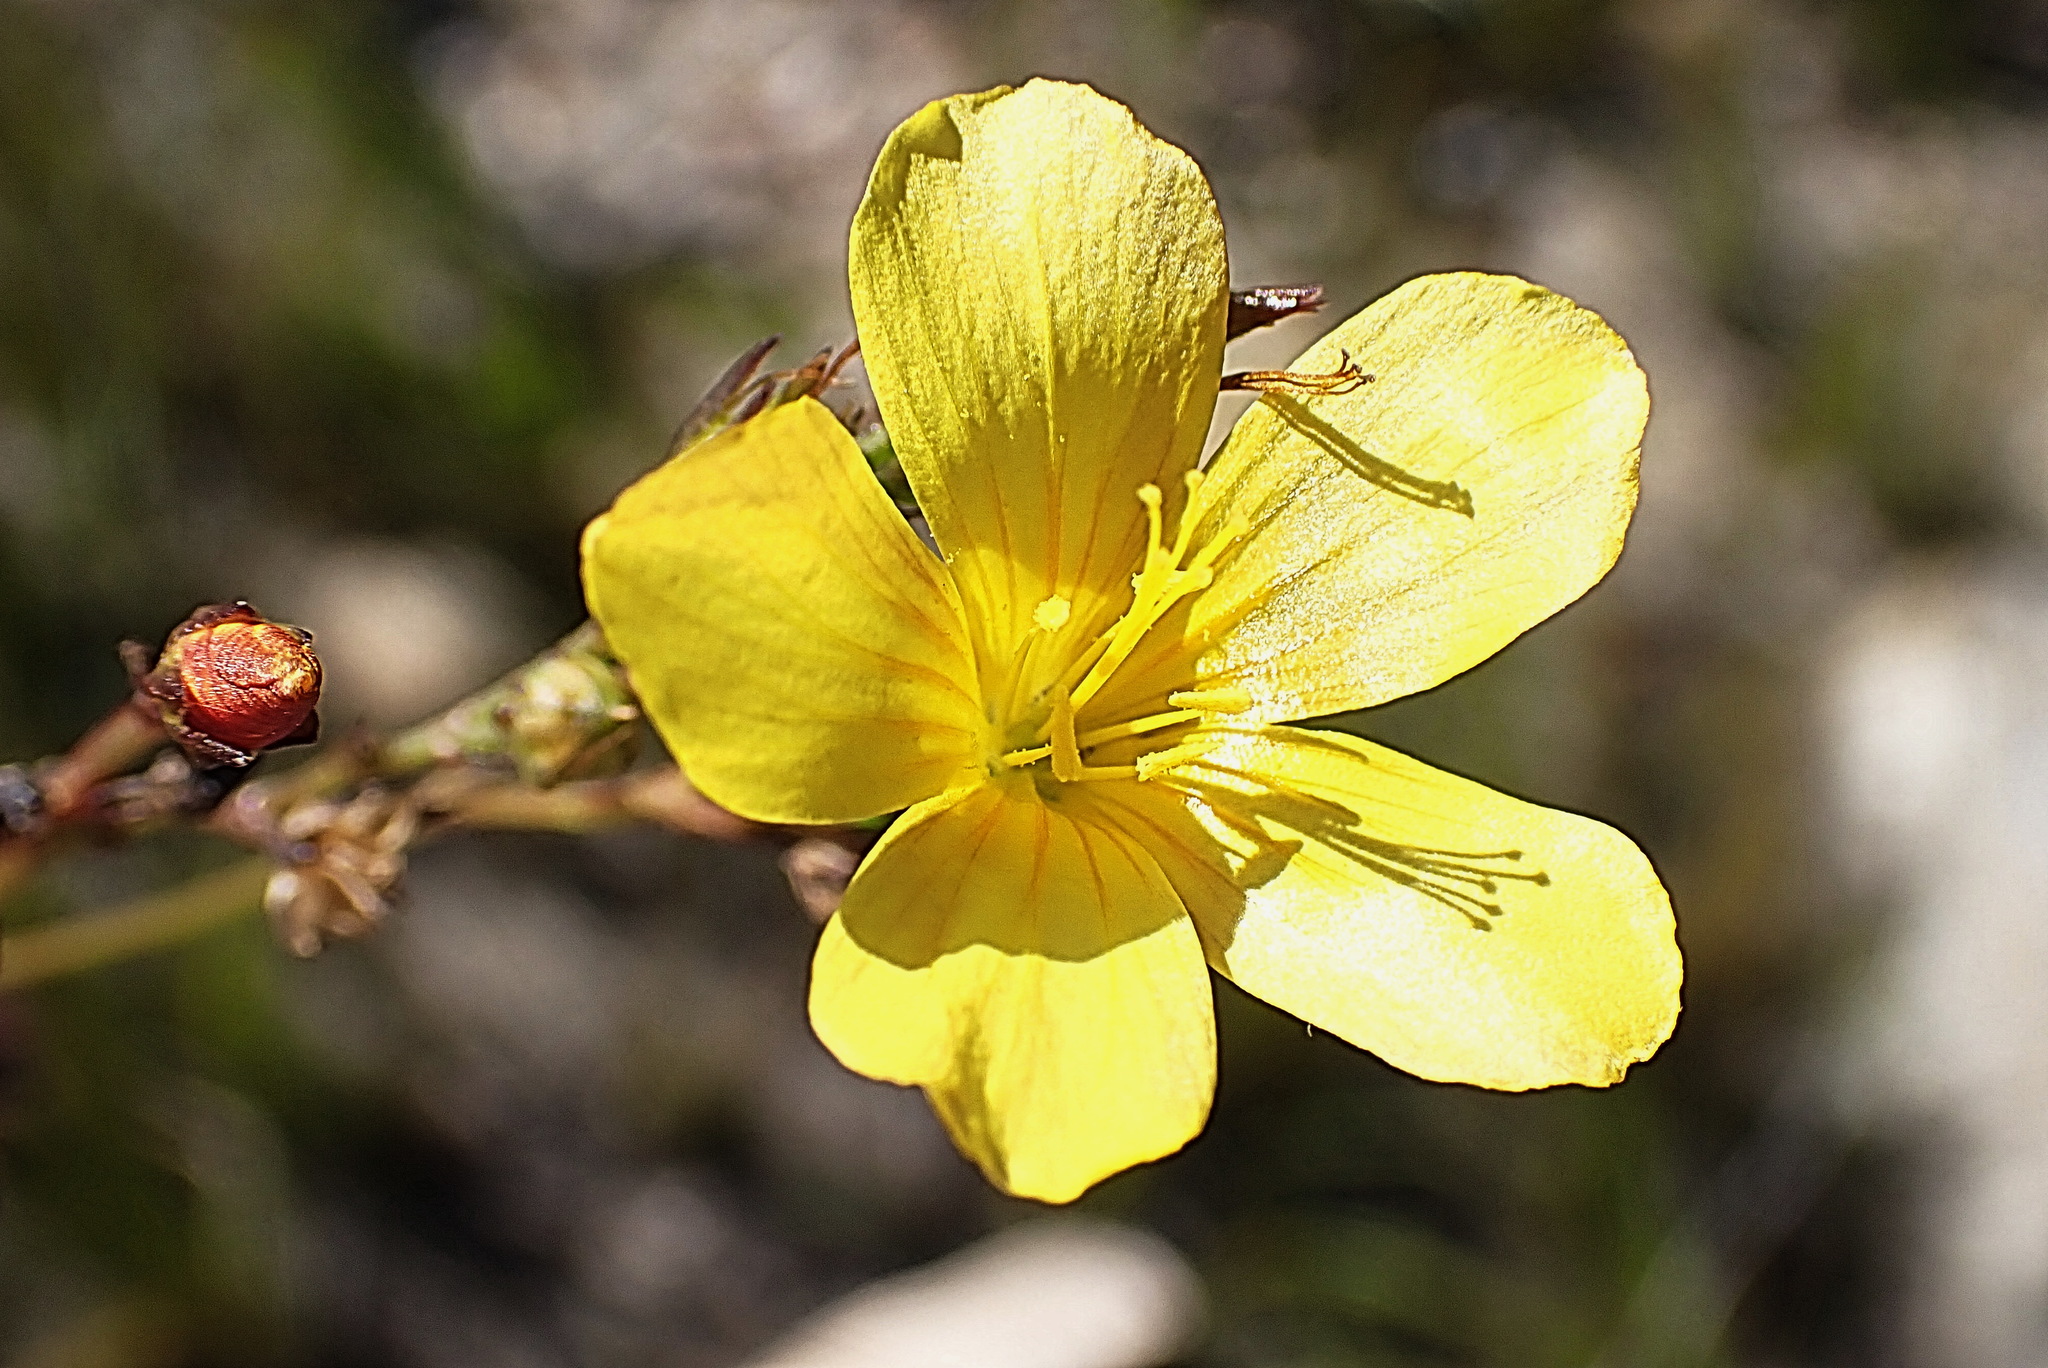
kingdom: Plantae
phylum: Tracheophyta
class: Magnoliopsida
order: Malpighiales
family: Linaceae
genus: Linum
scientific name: Linum africanum
